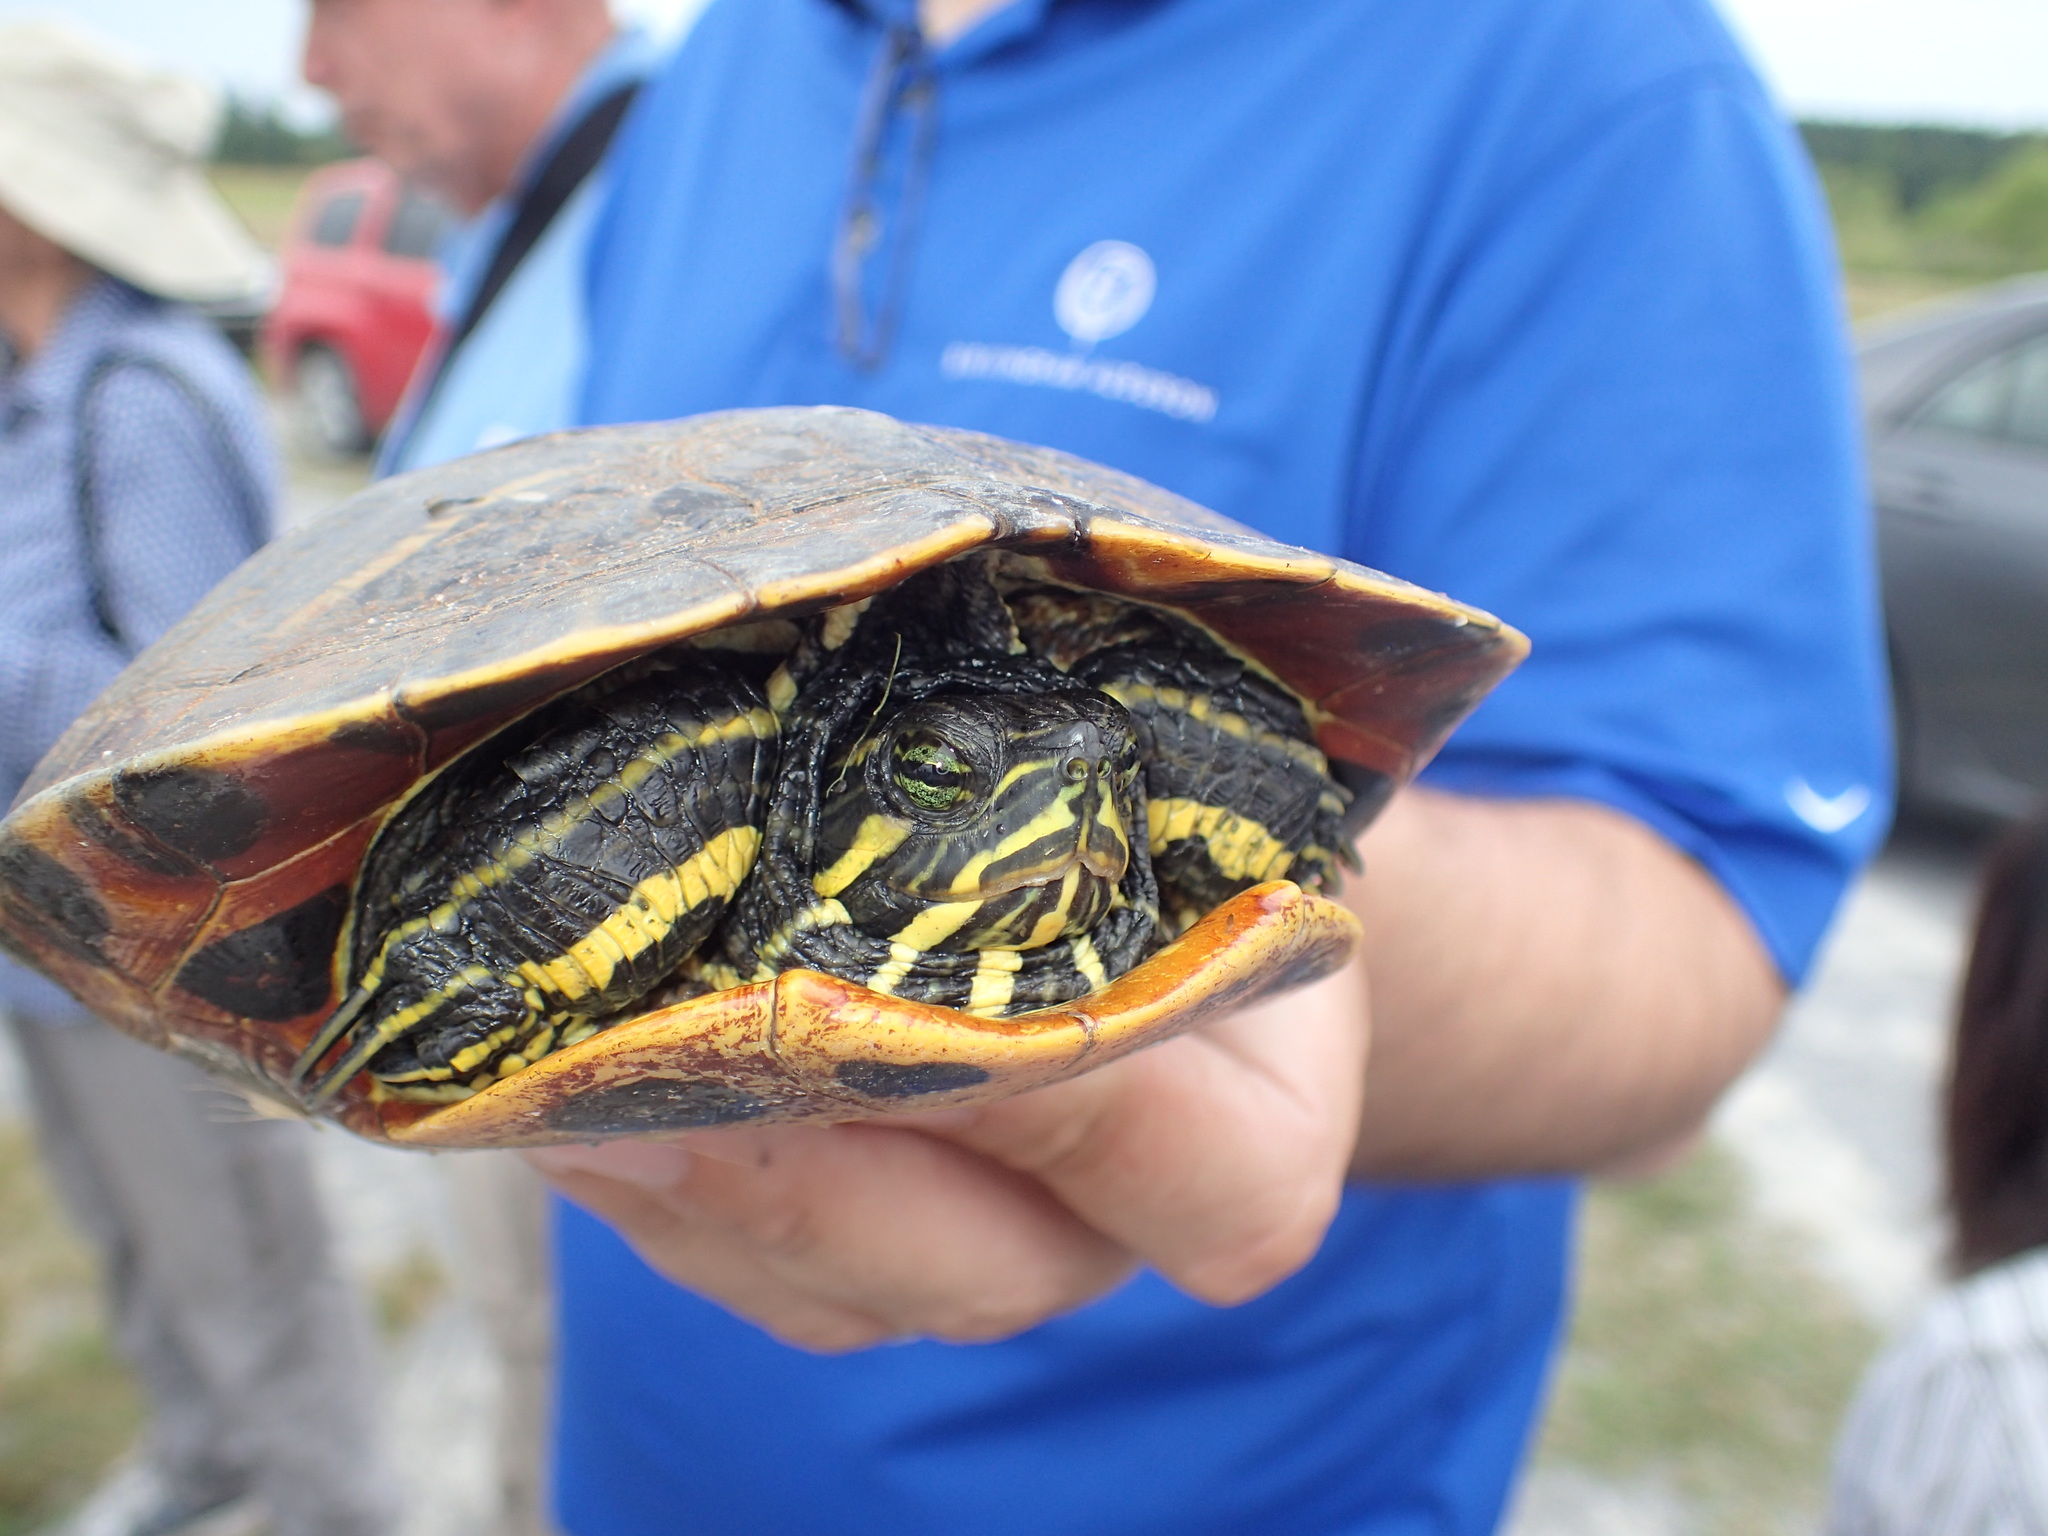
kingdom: Animalia
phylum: Chordata
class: Testudines
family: Emydidae
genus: Trachemys
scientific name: Trachemys scripta
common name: Slider
